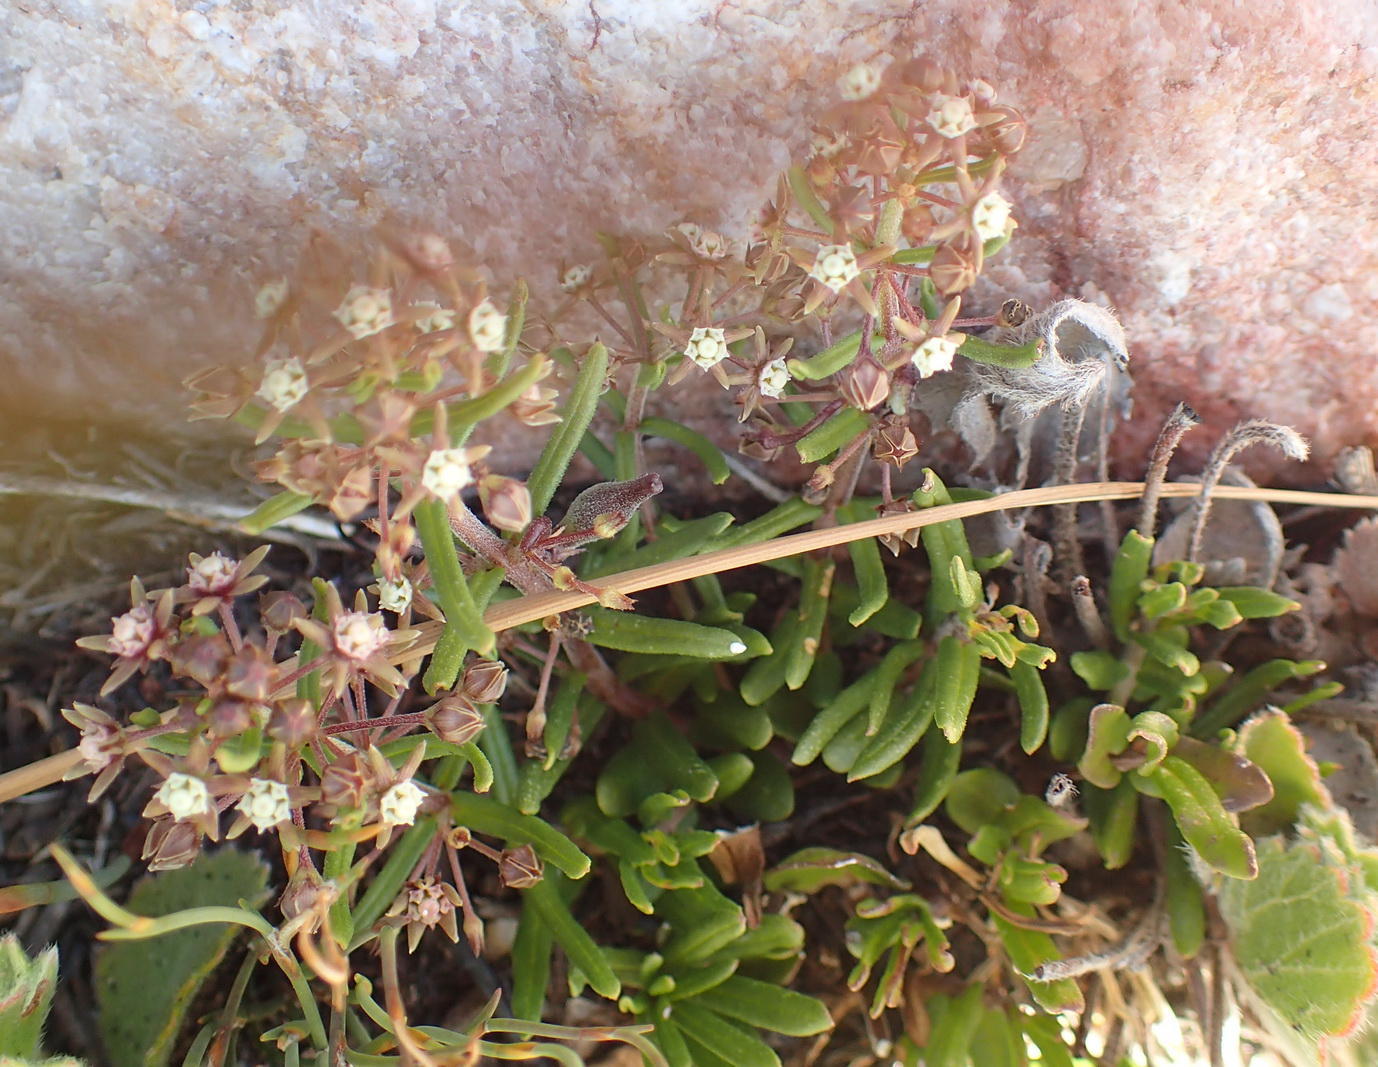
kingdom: Plantae
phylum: Tracheophyta
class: Magnoliopsida
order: Gentianales
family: Apocynaceae
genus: Aspidoglossum
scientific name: Aspidoglossum heterophyllum
